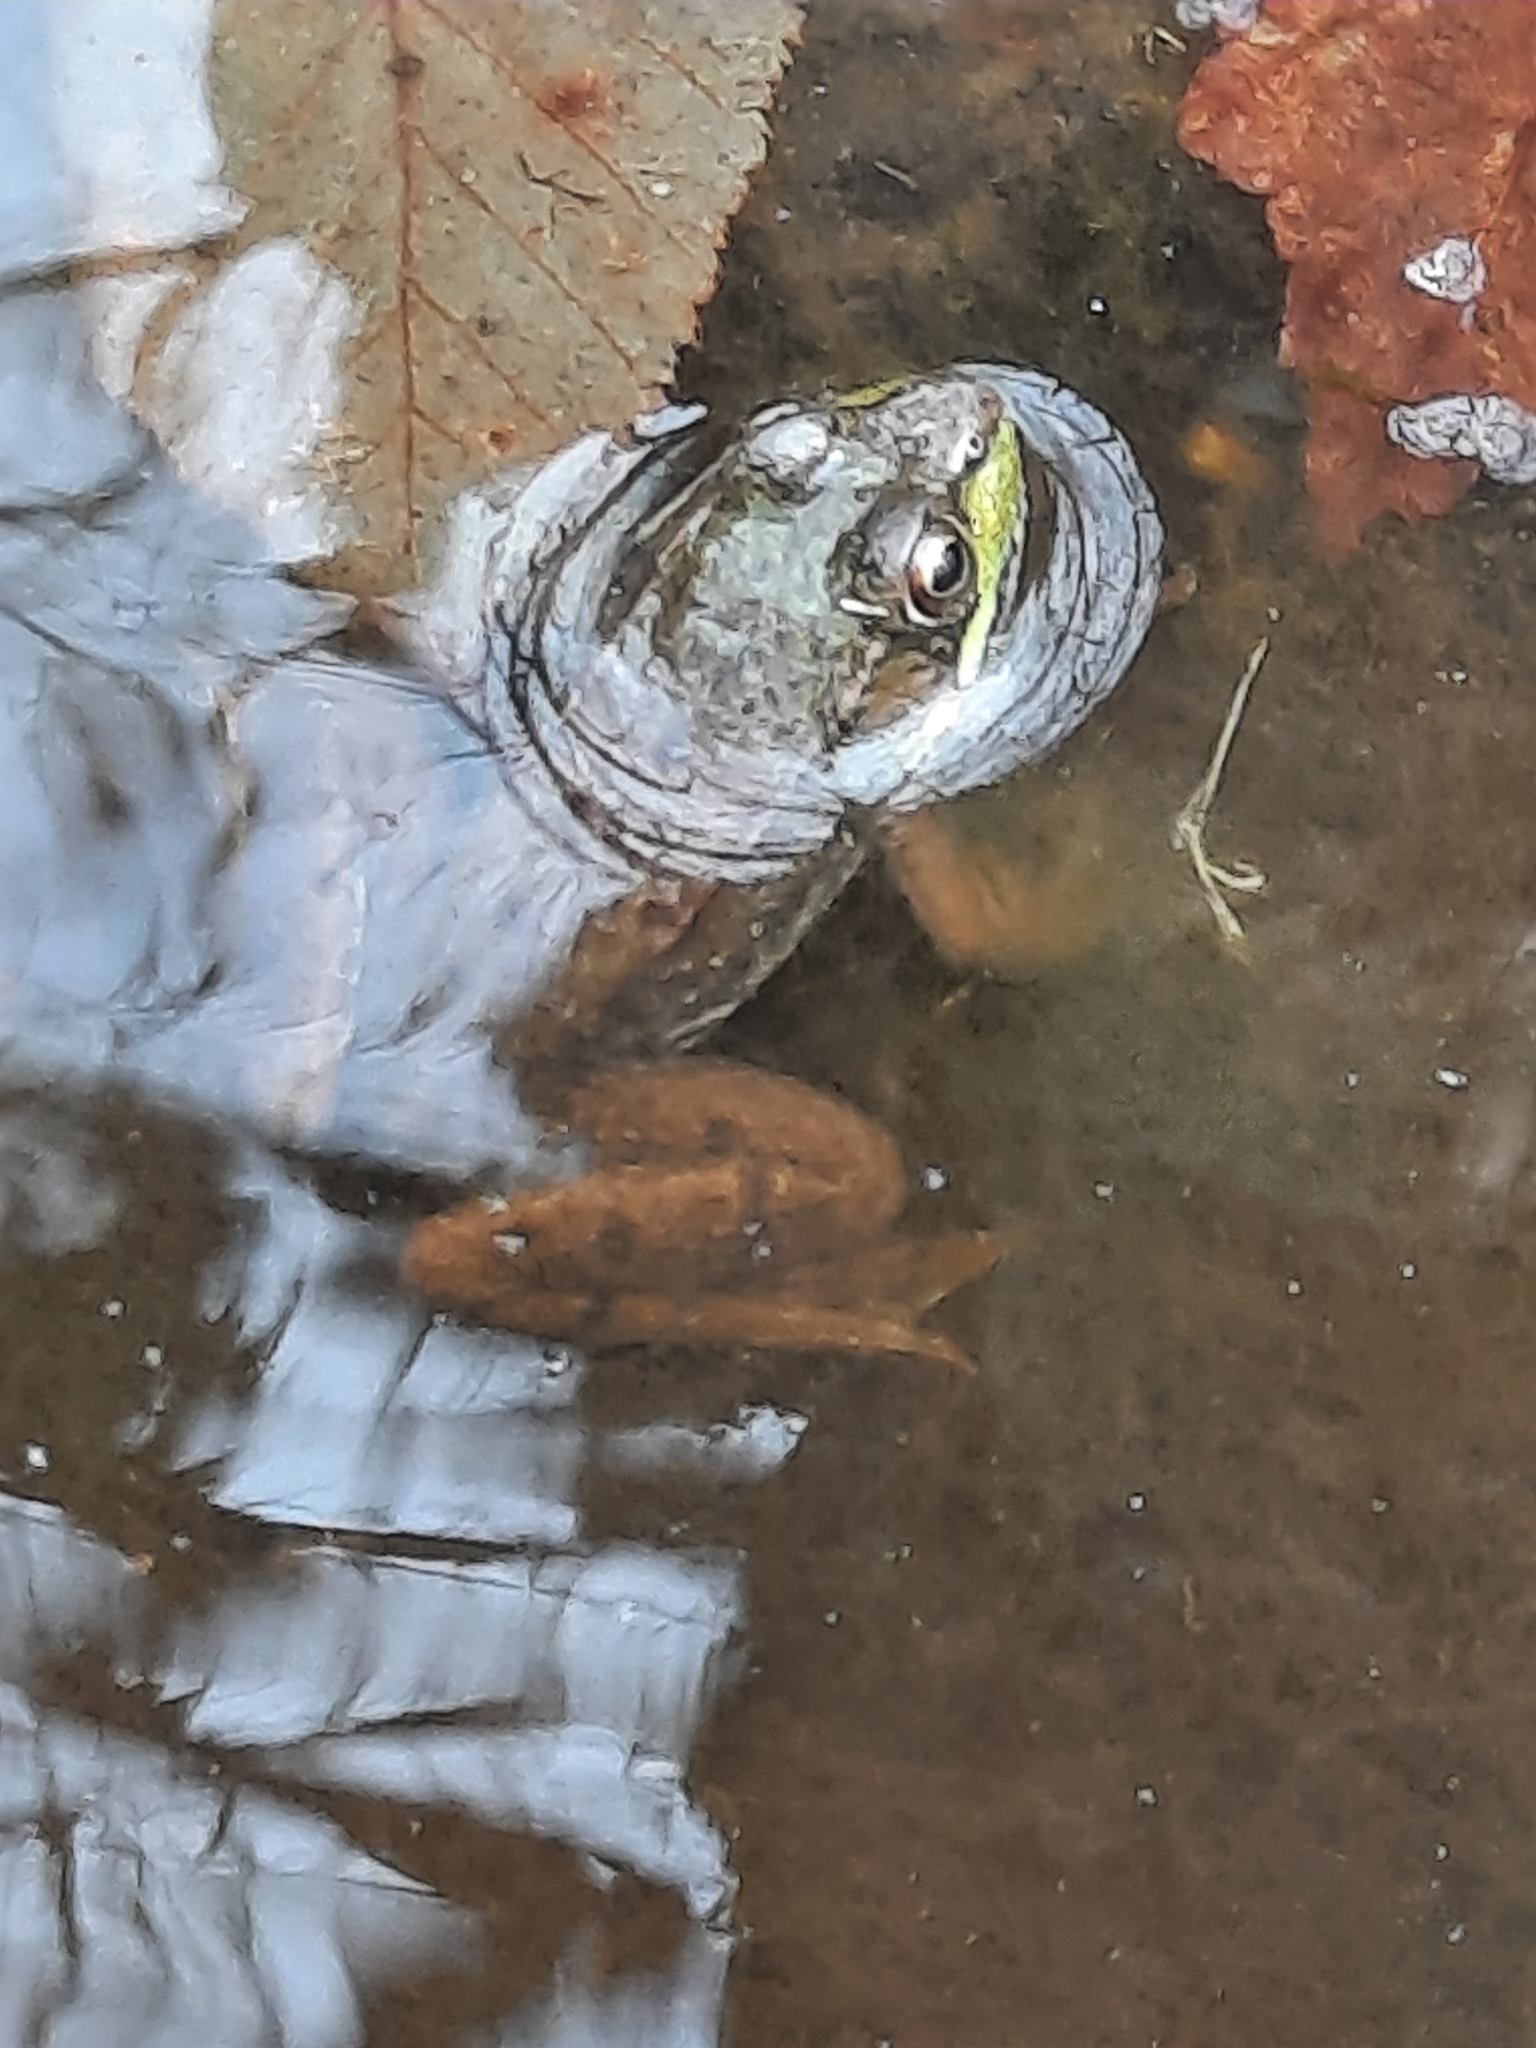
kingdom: Animalia
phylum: Chordata
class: Amphibia
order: Anura
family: Ranidae
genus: Lithobates
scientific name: Lithobates clamitans
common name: Green frog
